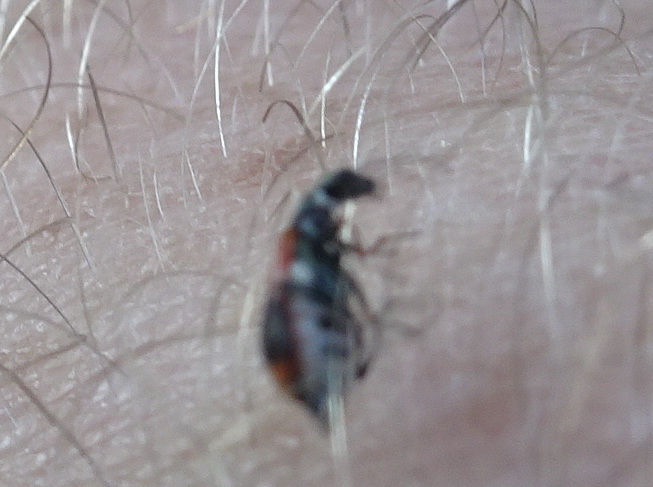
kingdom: Animalia
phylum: Arthropoda
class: Insecta
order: Coleoptera
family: Melyridae
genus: Anthocomus
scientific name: Anthocomus equestris
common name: Black-banded soft-winged flower beetle
